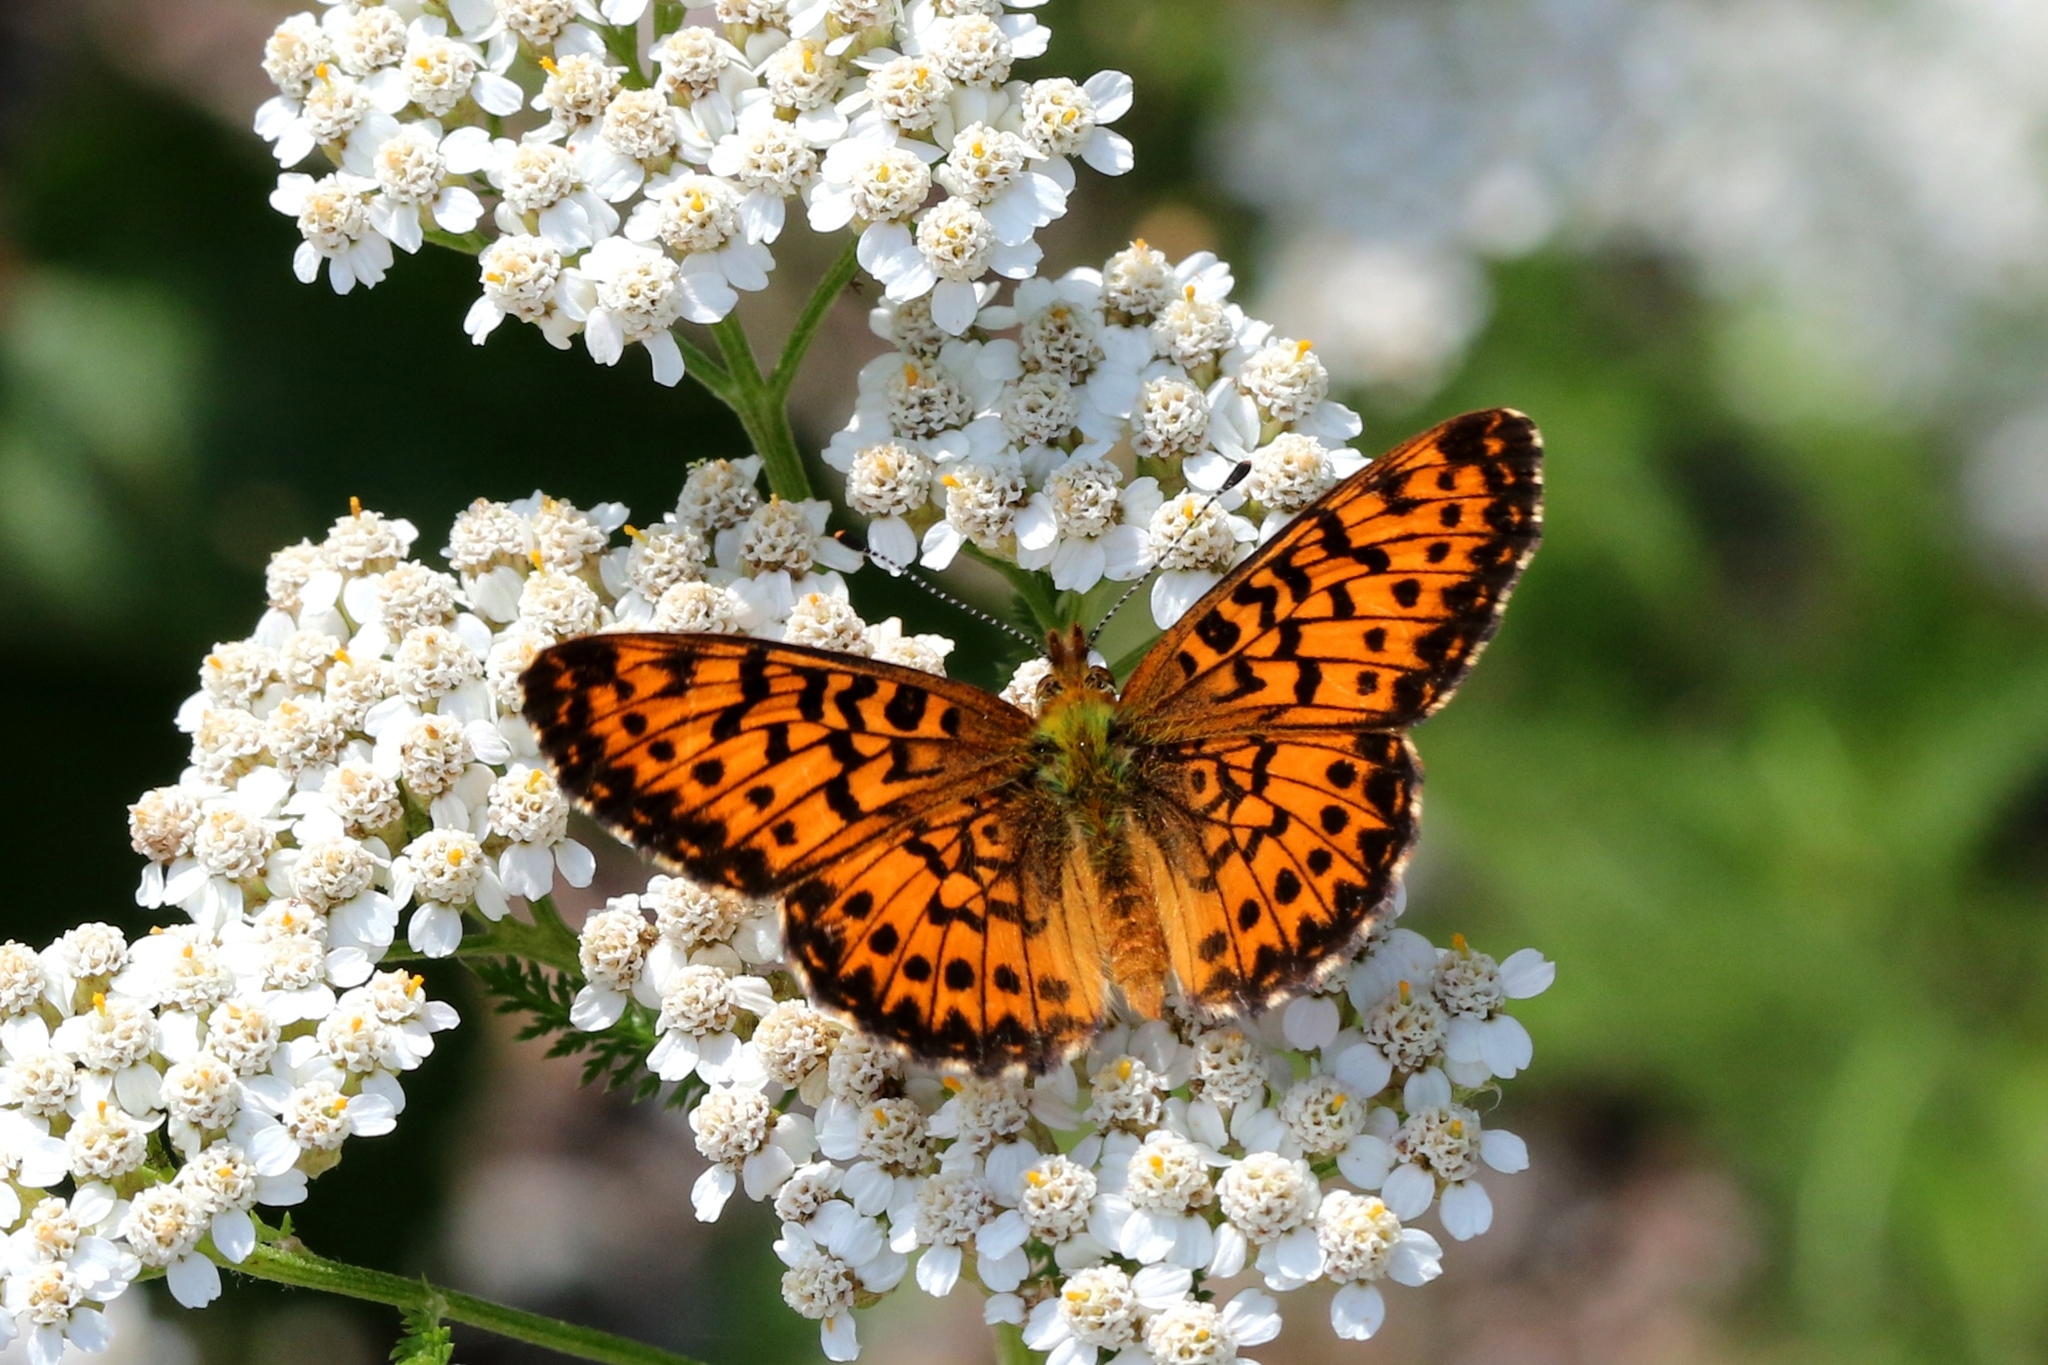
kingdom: Animalia
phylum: Arthropoda
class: Insecta
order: Lepidoptera
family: Nymphalidae
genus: Boloria
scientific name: Boloria chariclea
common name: Arctic fritillary
